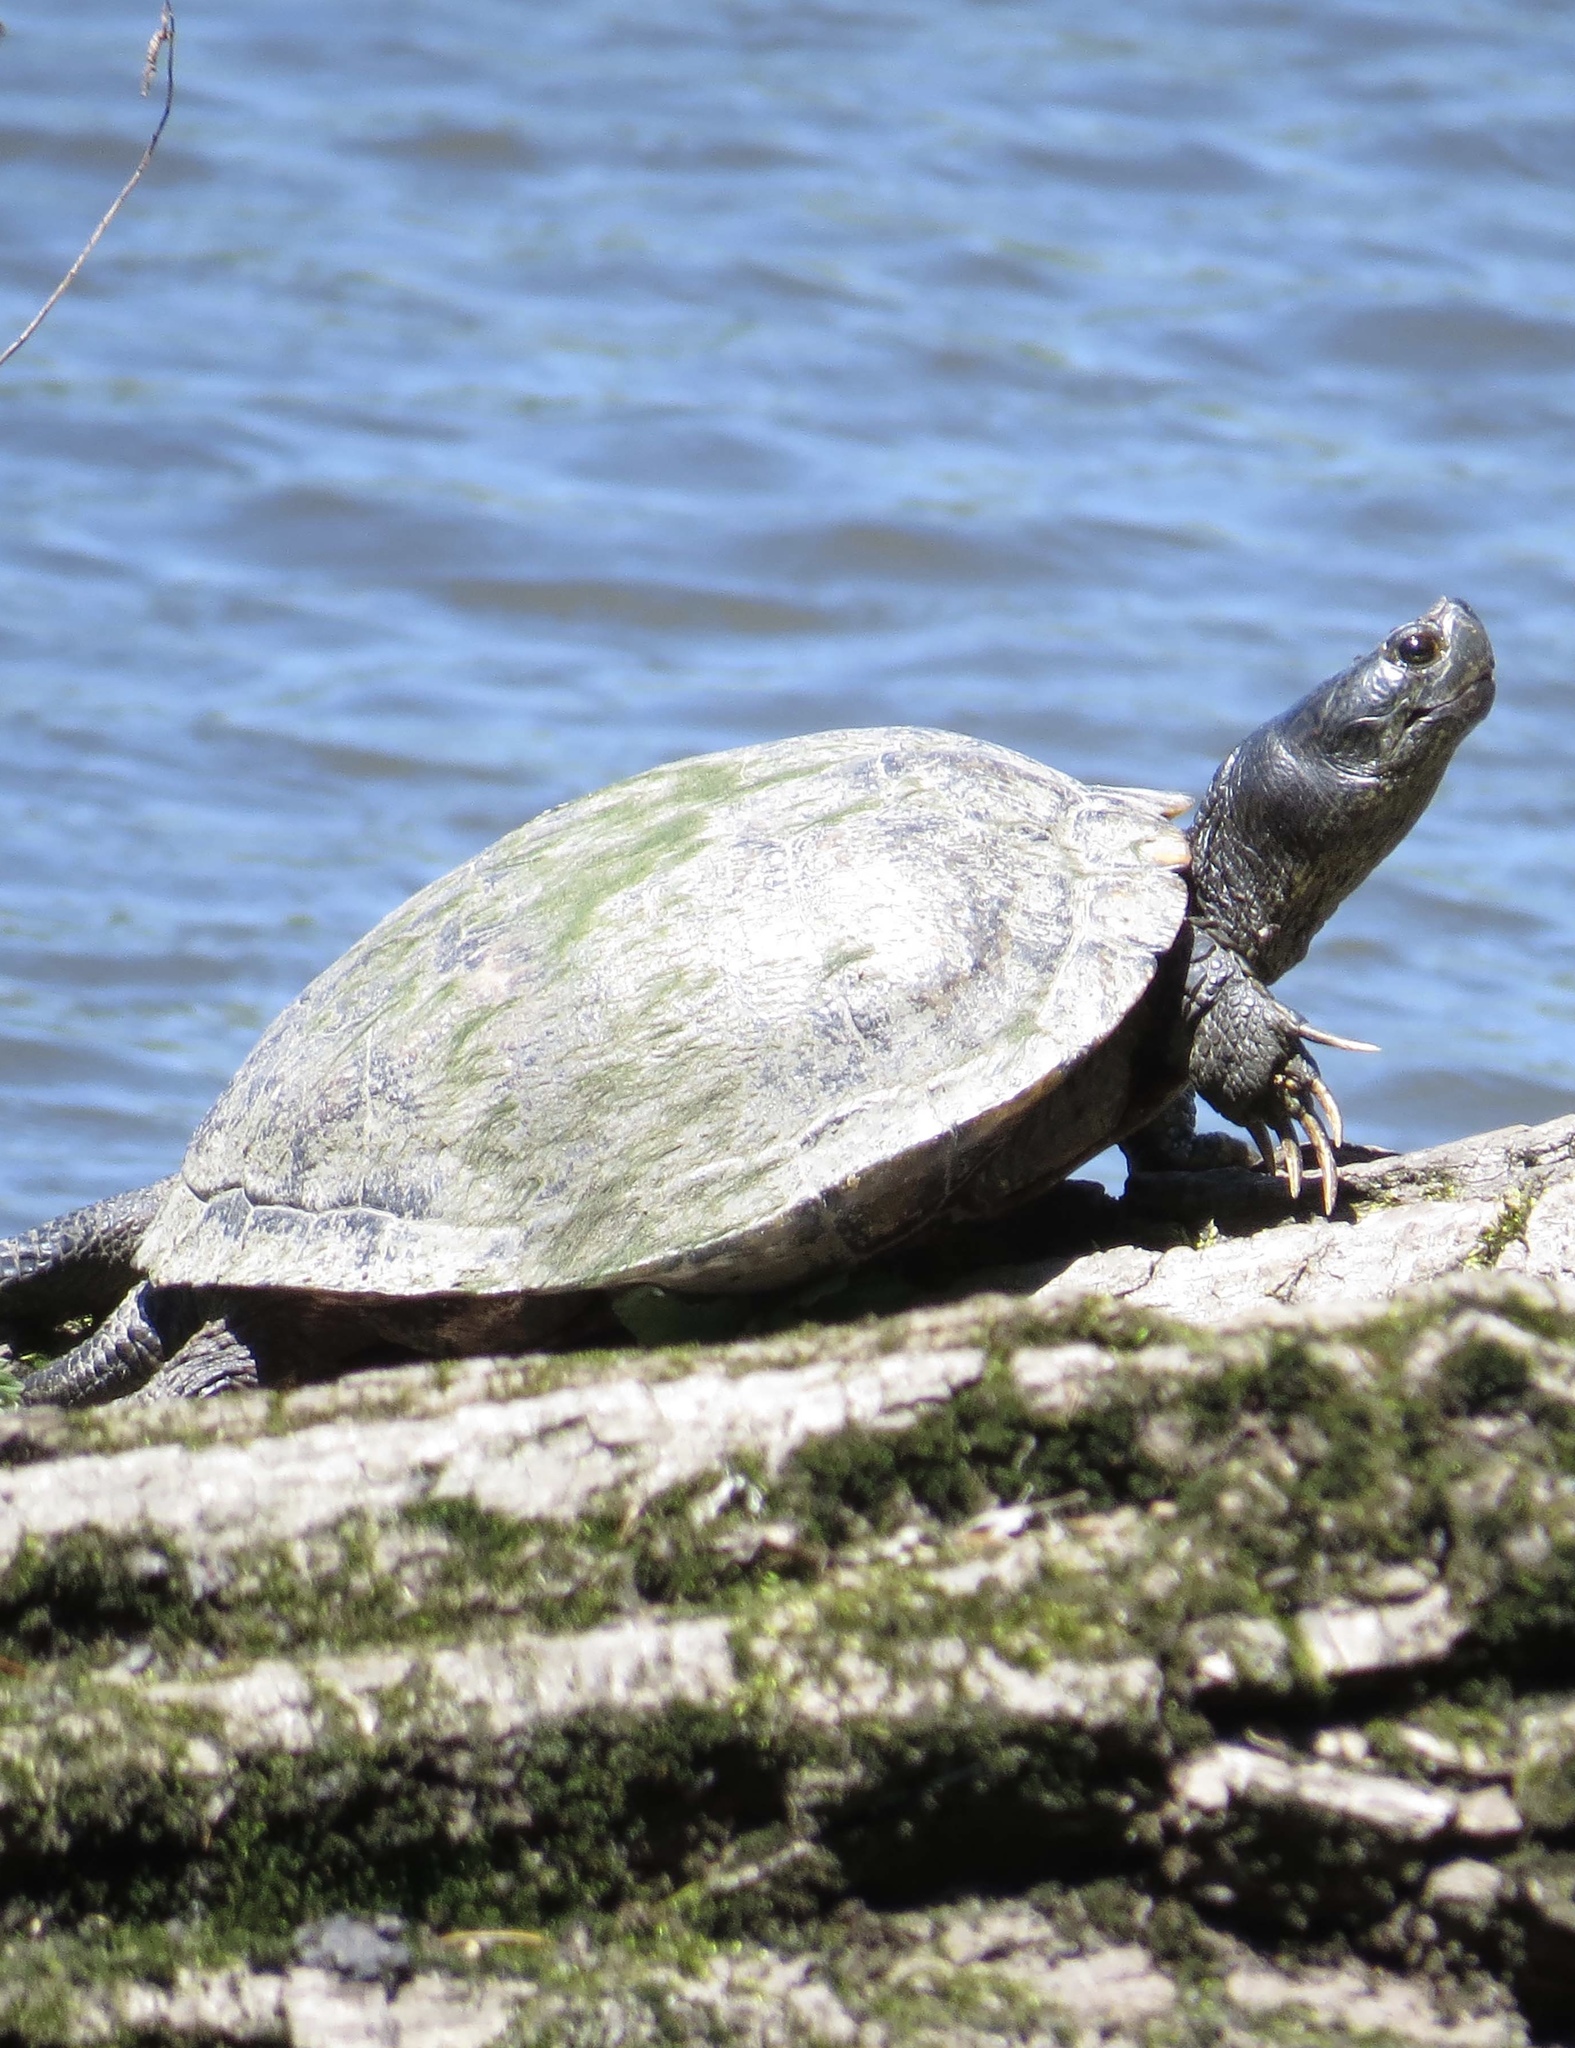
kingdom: Animalia
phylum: Chordata
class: Testudines
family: Emydidae
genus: Trachemys
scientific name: Trachemys scripta
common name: Slider
